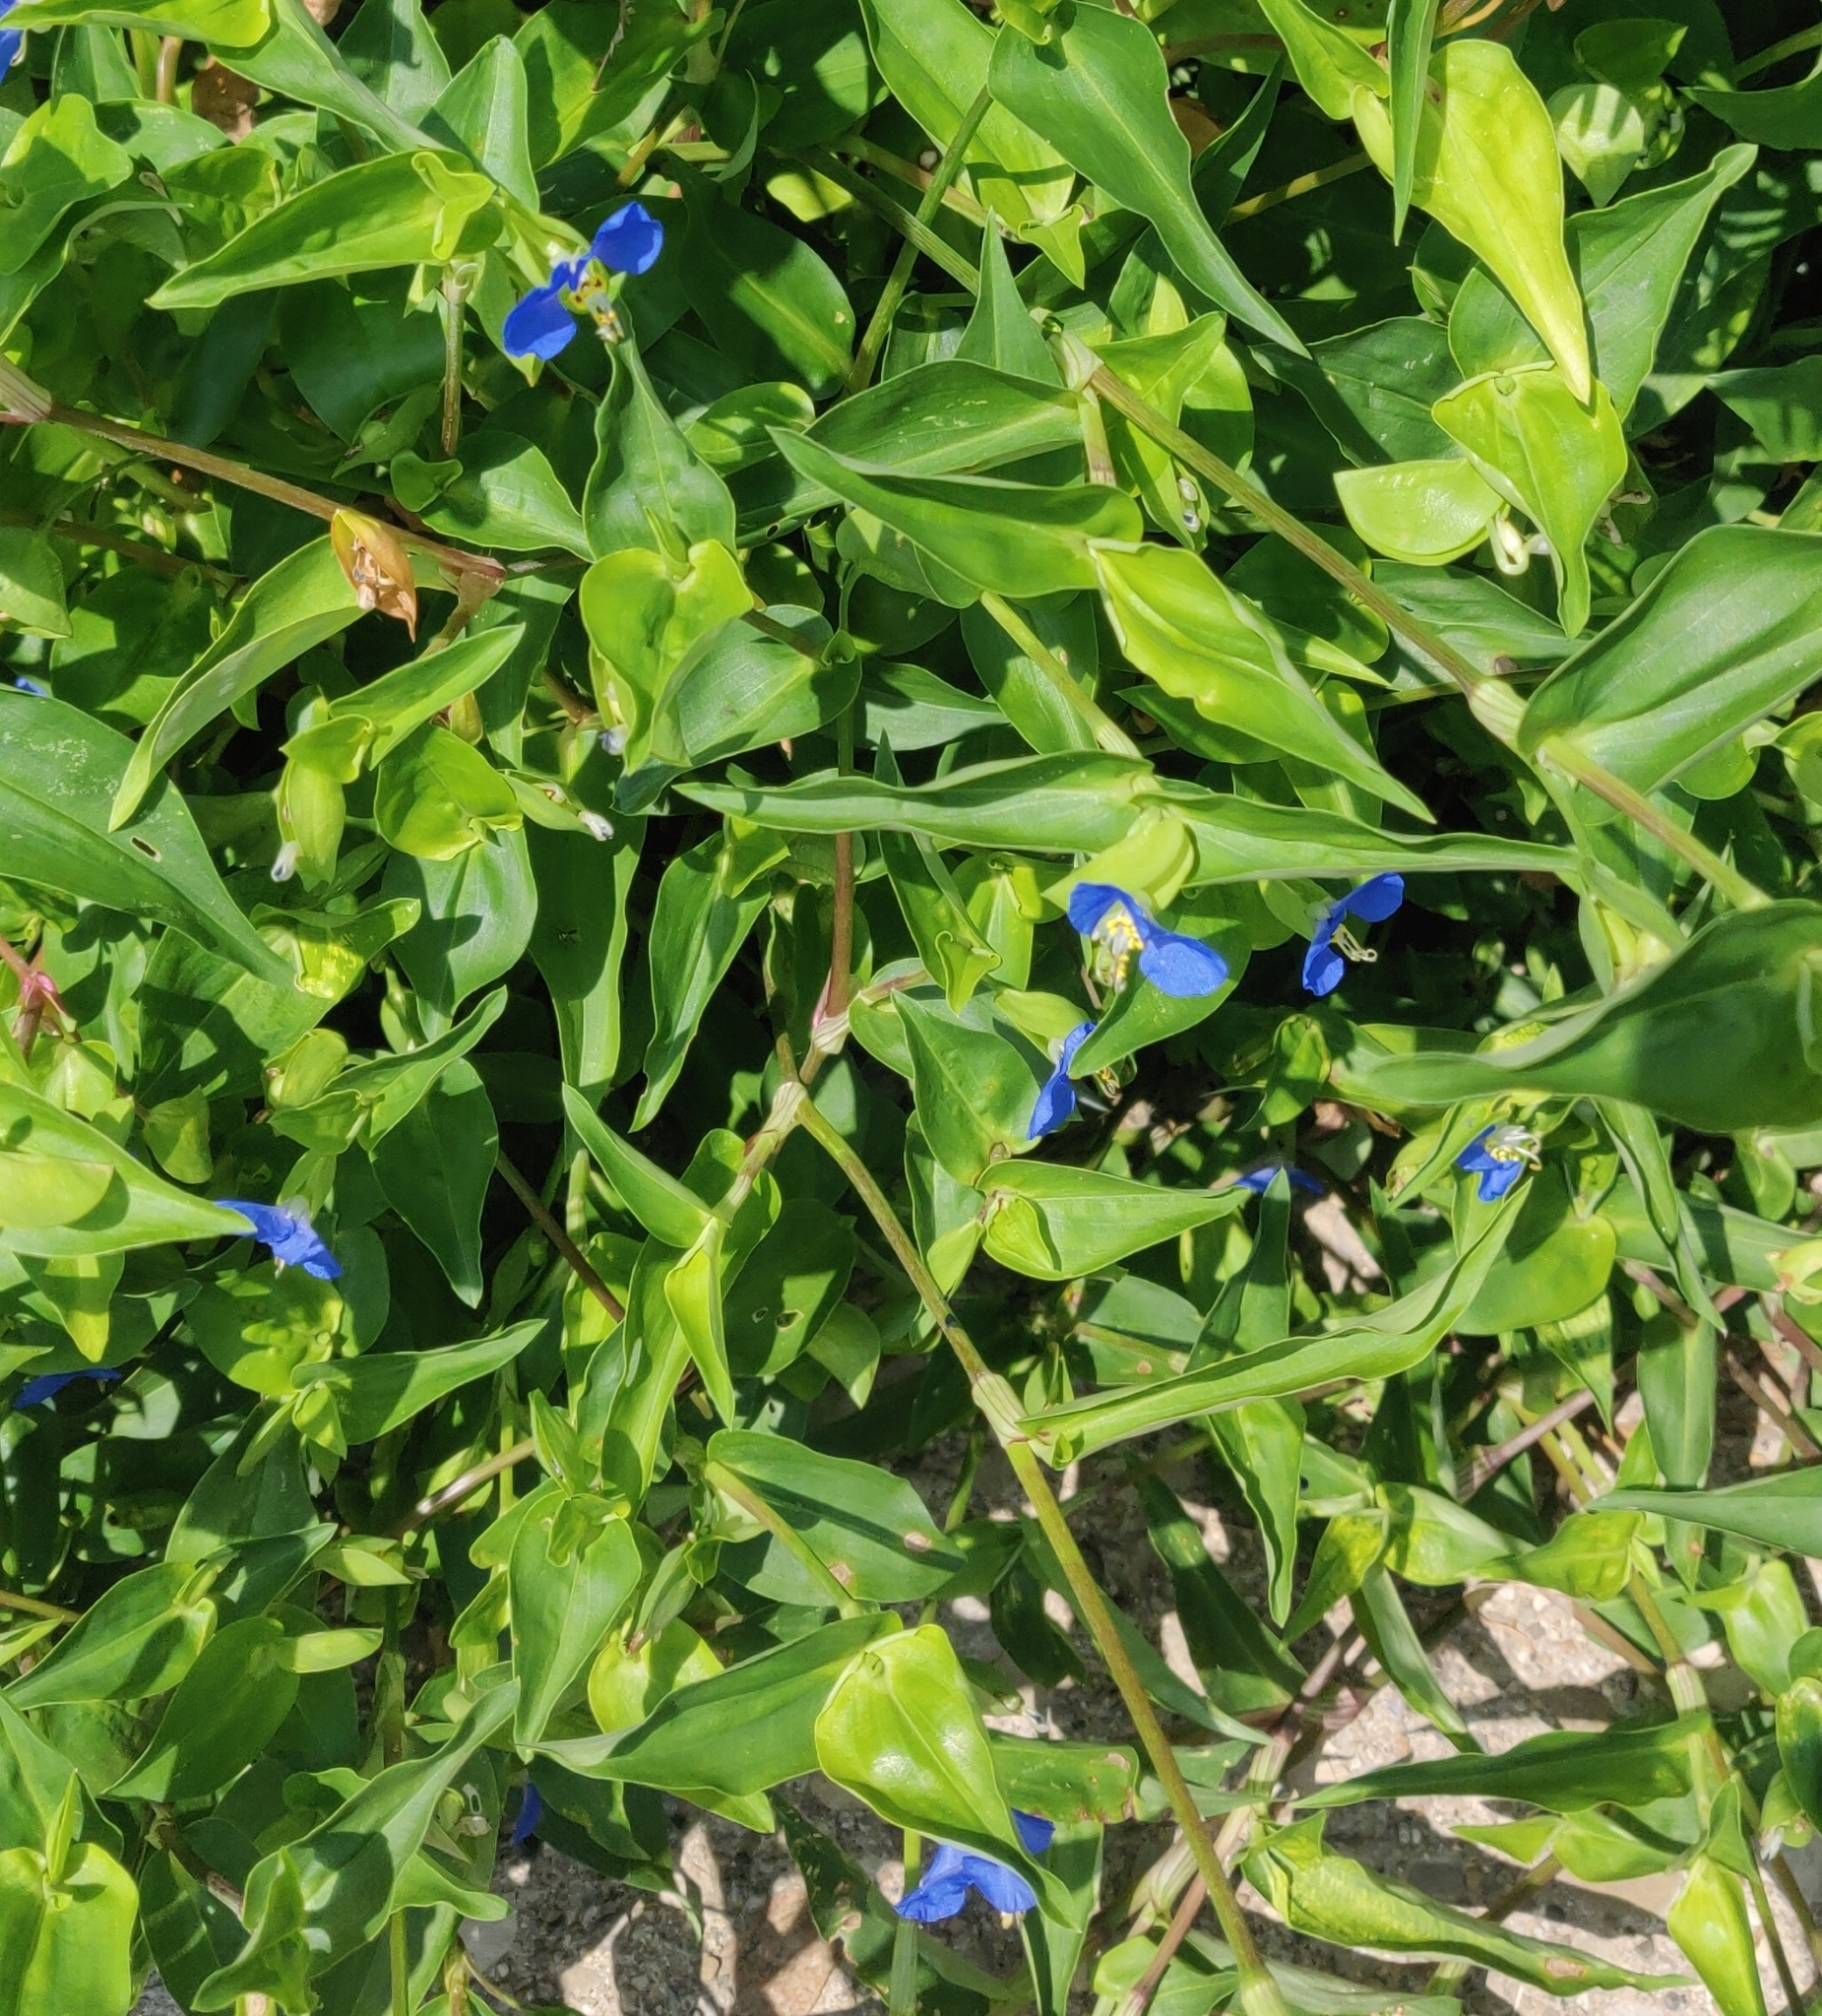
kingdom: Plantae
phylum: Tracheophyta
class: Liliopsida
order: Commelinales
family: Commelinaceae
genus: Commelina
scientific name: Commelina communis
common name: Asiatic dayflower
